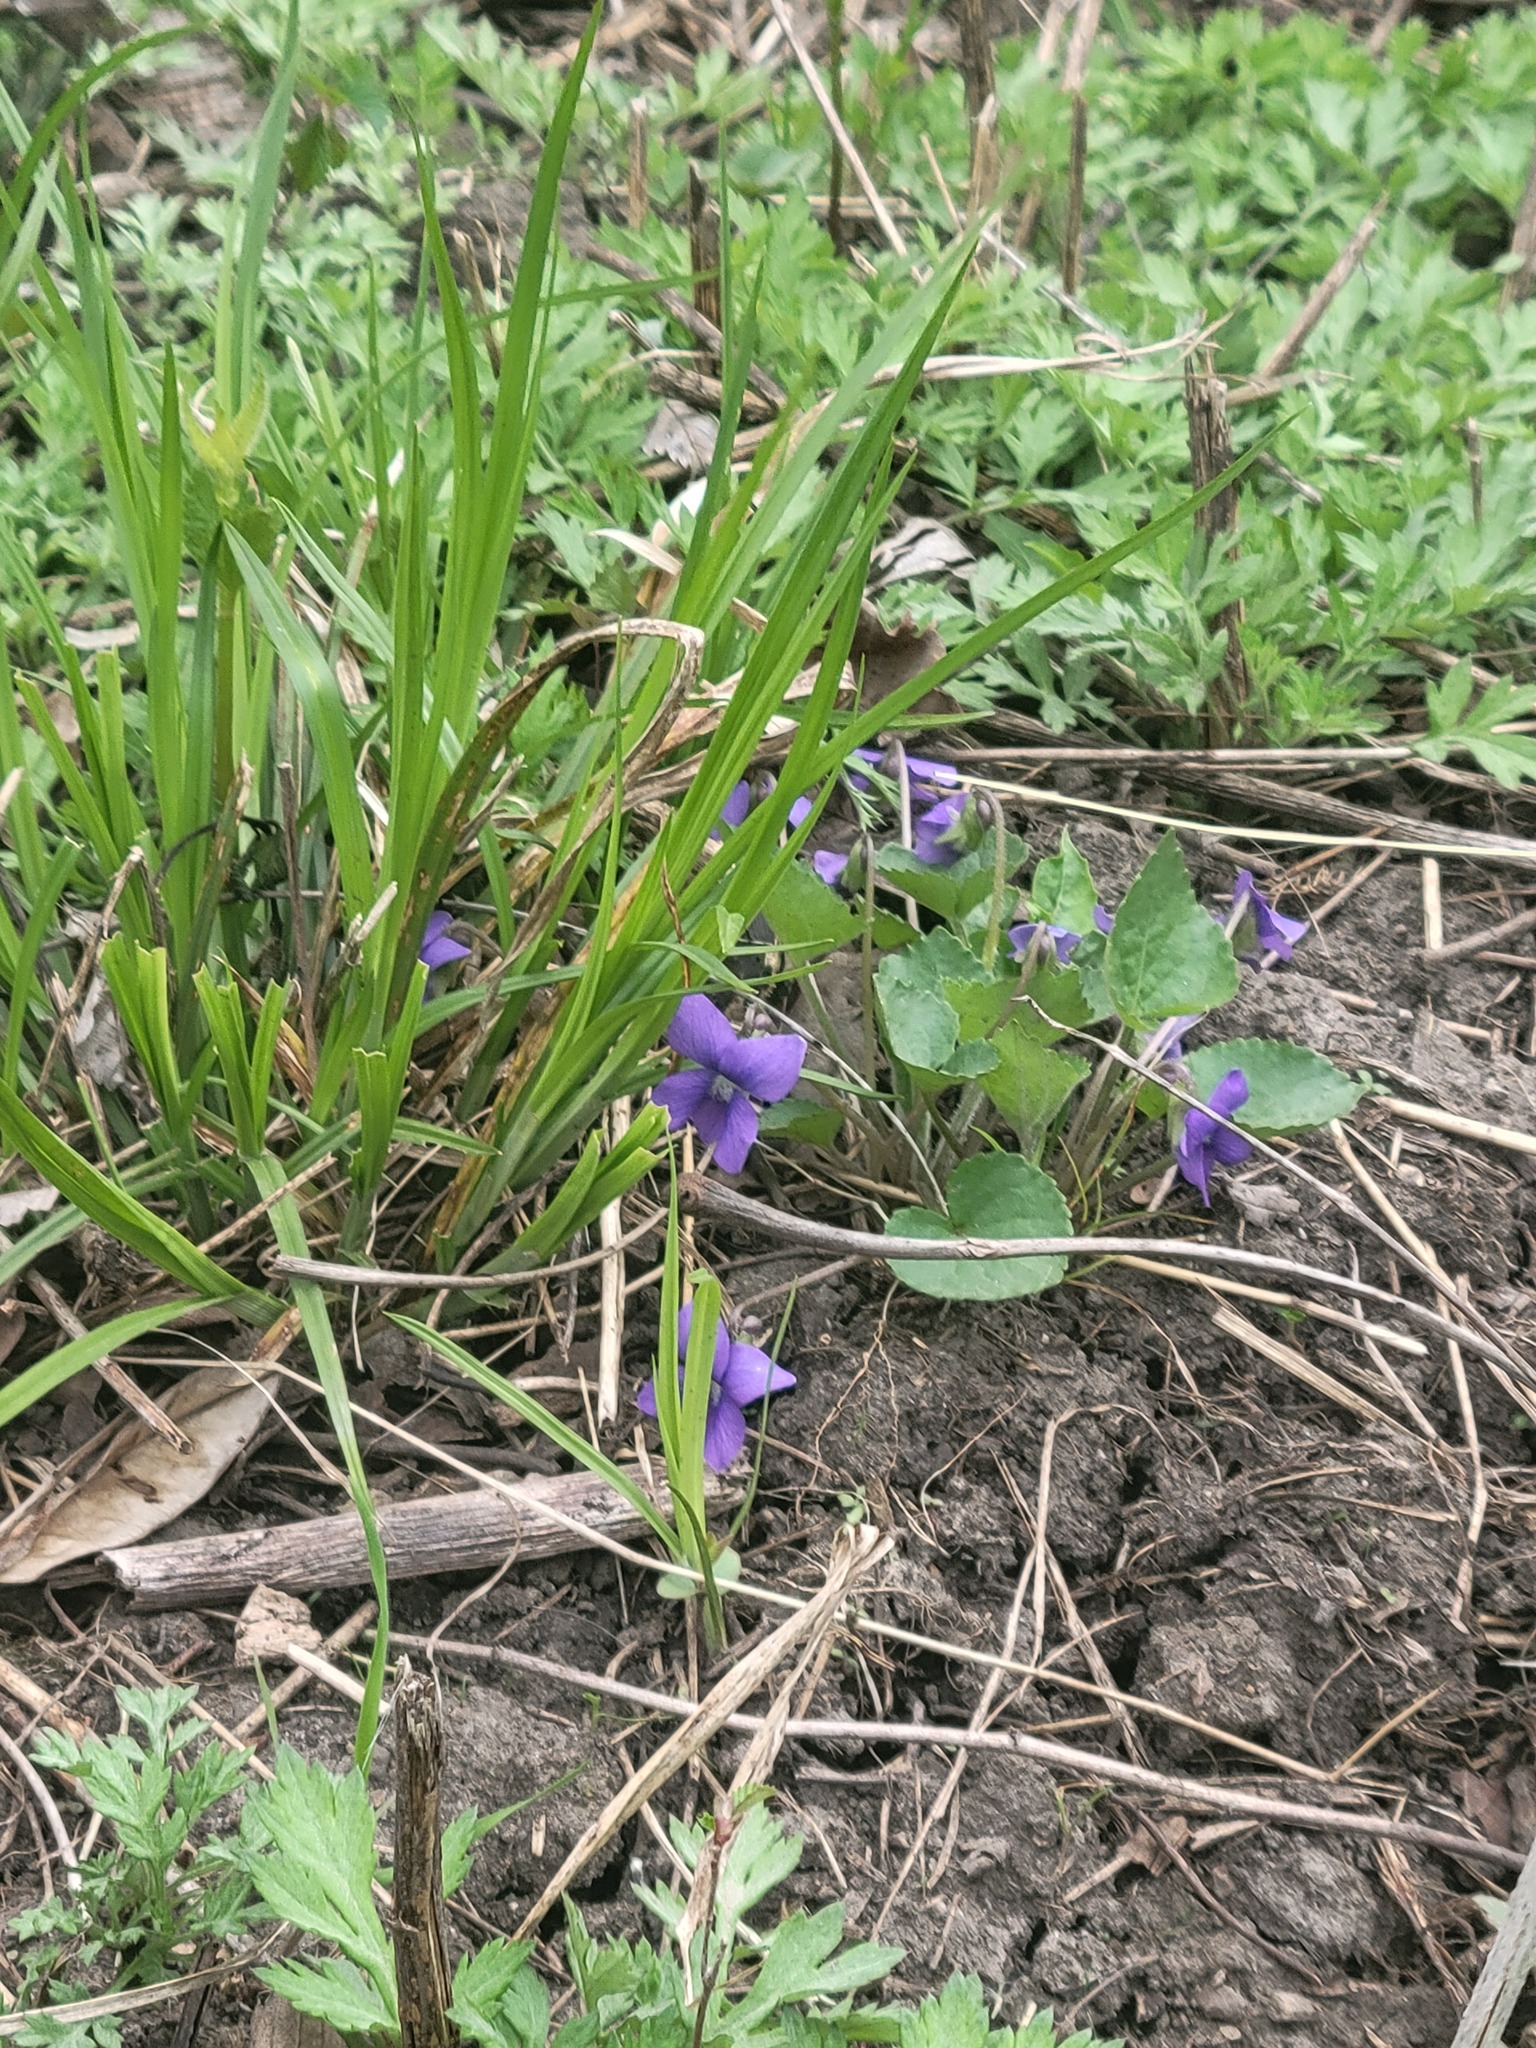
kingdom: Plantae
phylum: Tracheophyta
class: Magnoliopsida
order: Malpighiales
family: Violaceae
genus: Viola
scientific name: Viola sororia
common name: Dooryard violet
